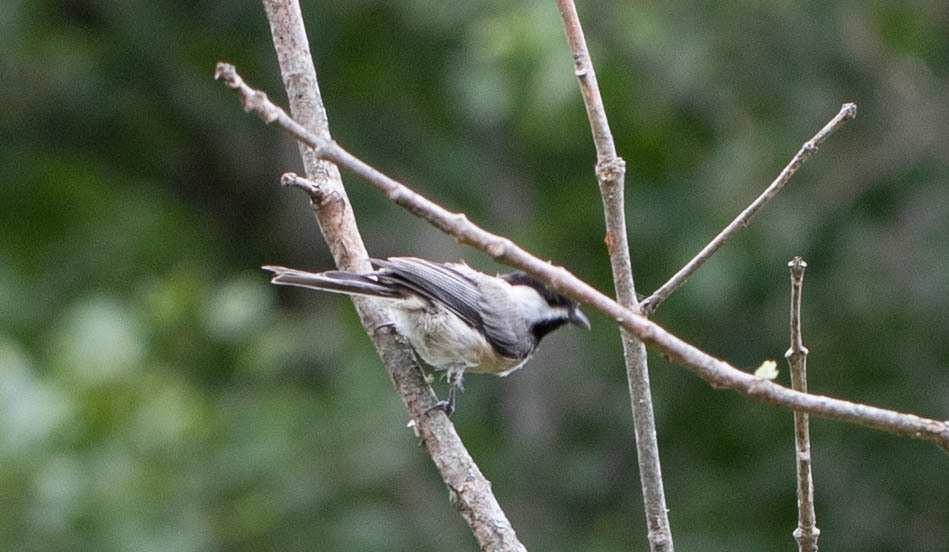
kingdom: Animalia
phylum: Chordata
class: Aves
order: Passeriformes
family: Paridae
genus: Poecile
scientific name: Poecile carolinensis
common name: Carolina chickadee
